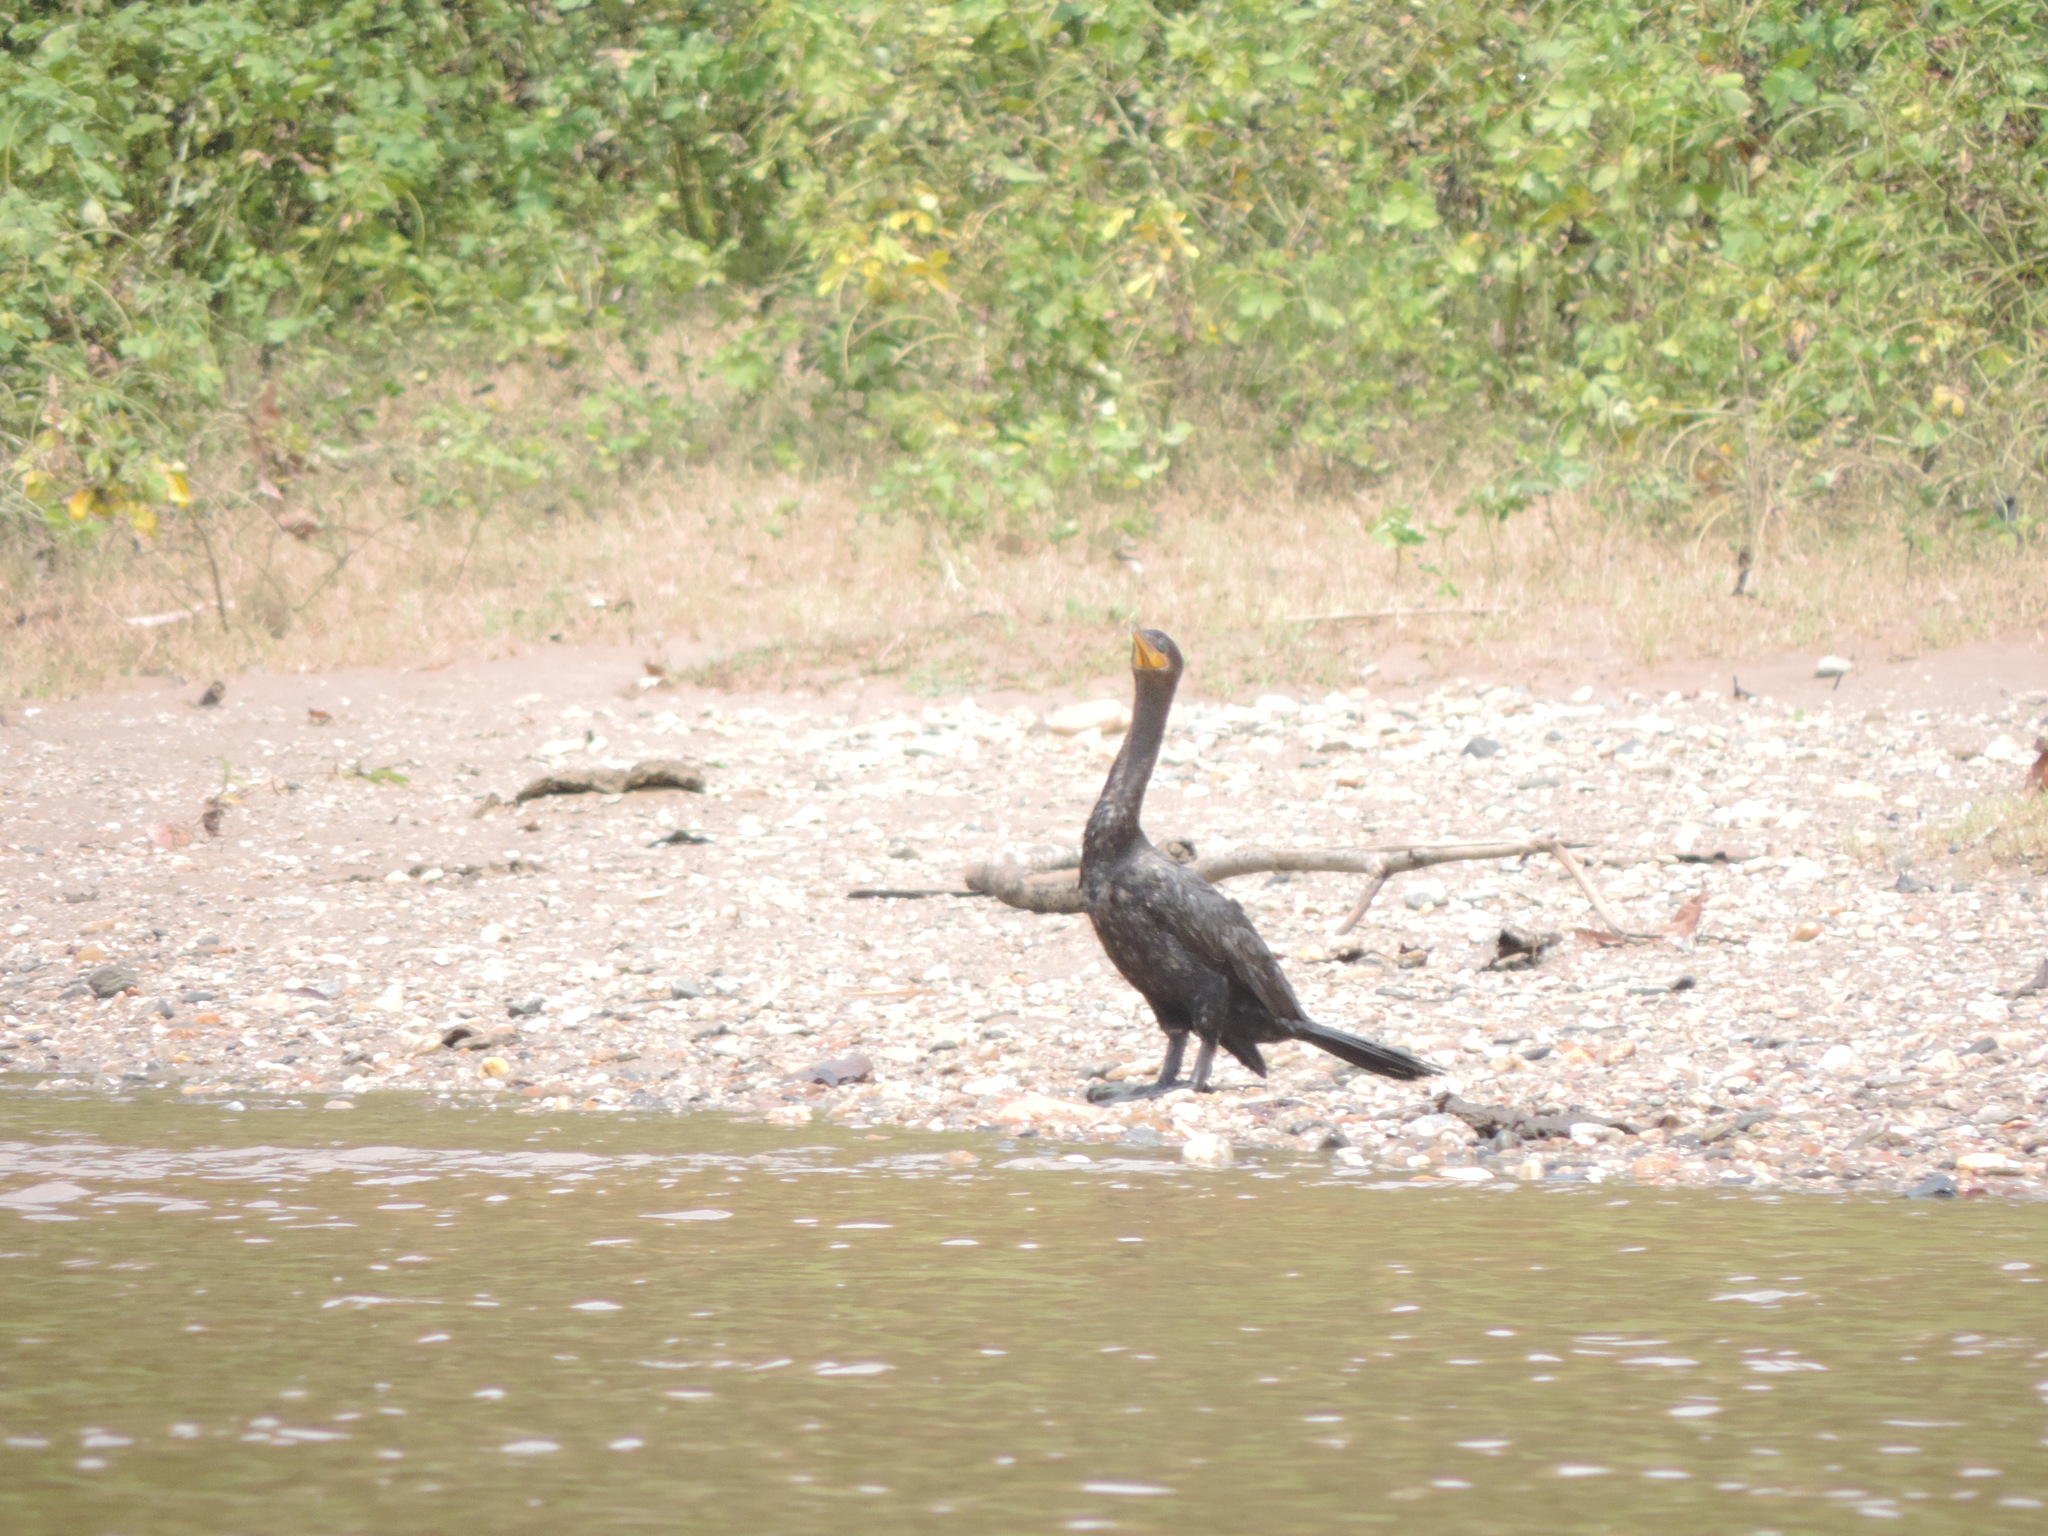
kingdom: Animalia
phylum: Chordata
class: Aves
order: Suliformes
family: Phalacrocoracidae
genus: Phalacrocorax
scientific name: Phalacrocorax brasilianus
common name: Neotropic cormorant
